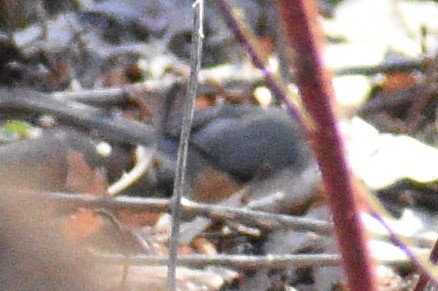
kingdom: Animalia
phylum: Chordata
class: Aves
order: Passeriformes
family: Paridae
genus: Baeolophus
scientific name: Baeolophus bicolor
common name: Tufted titmouse
